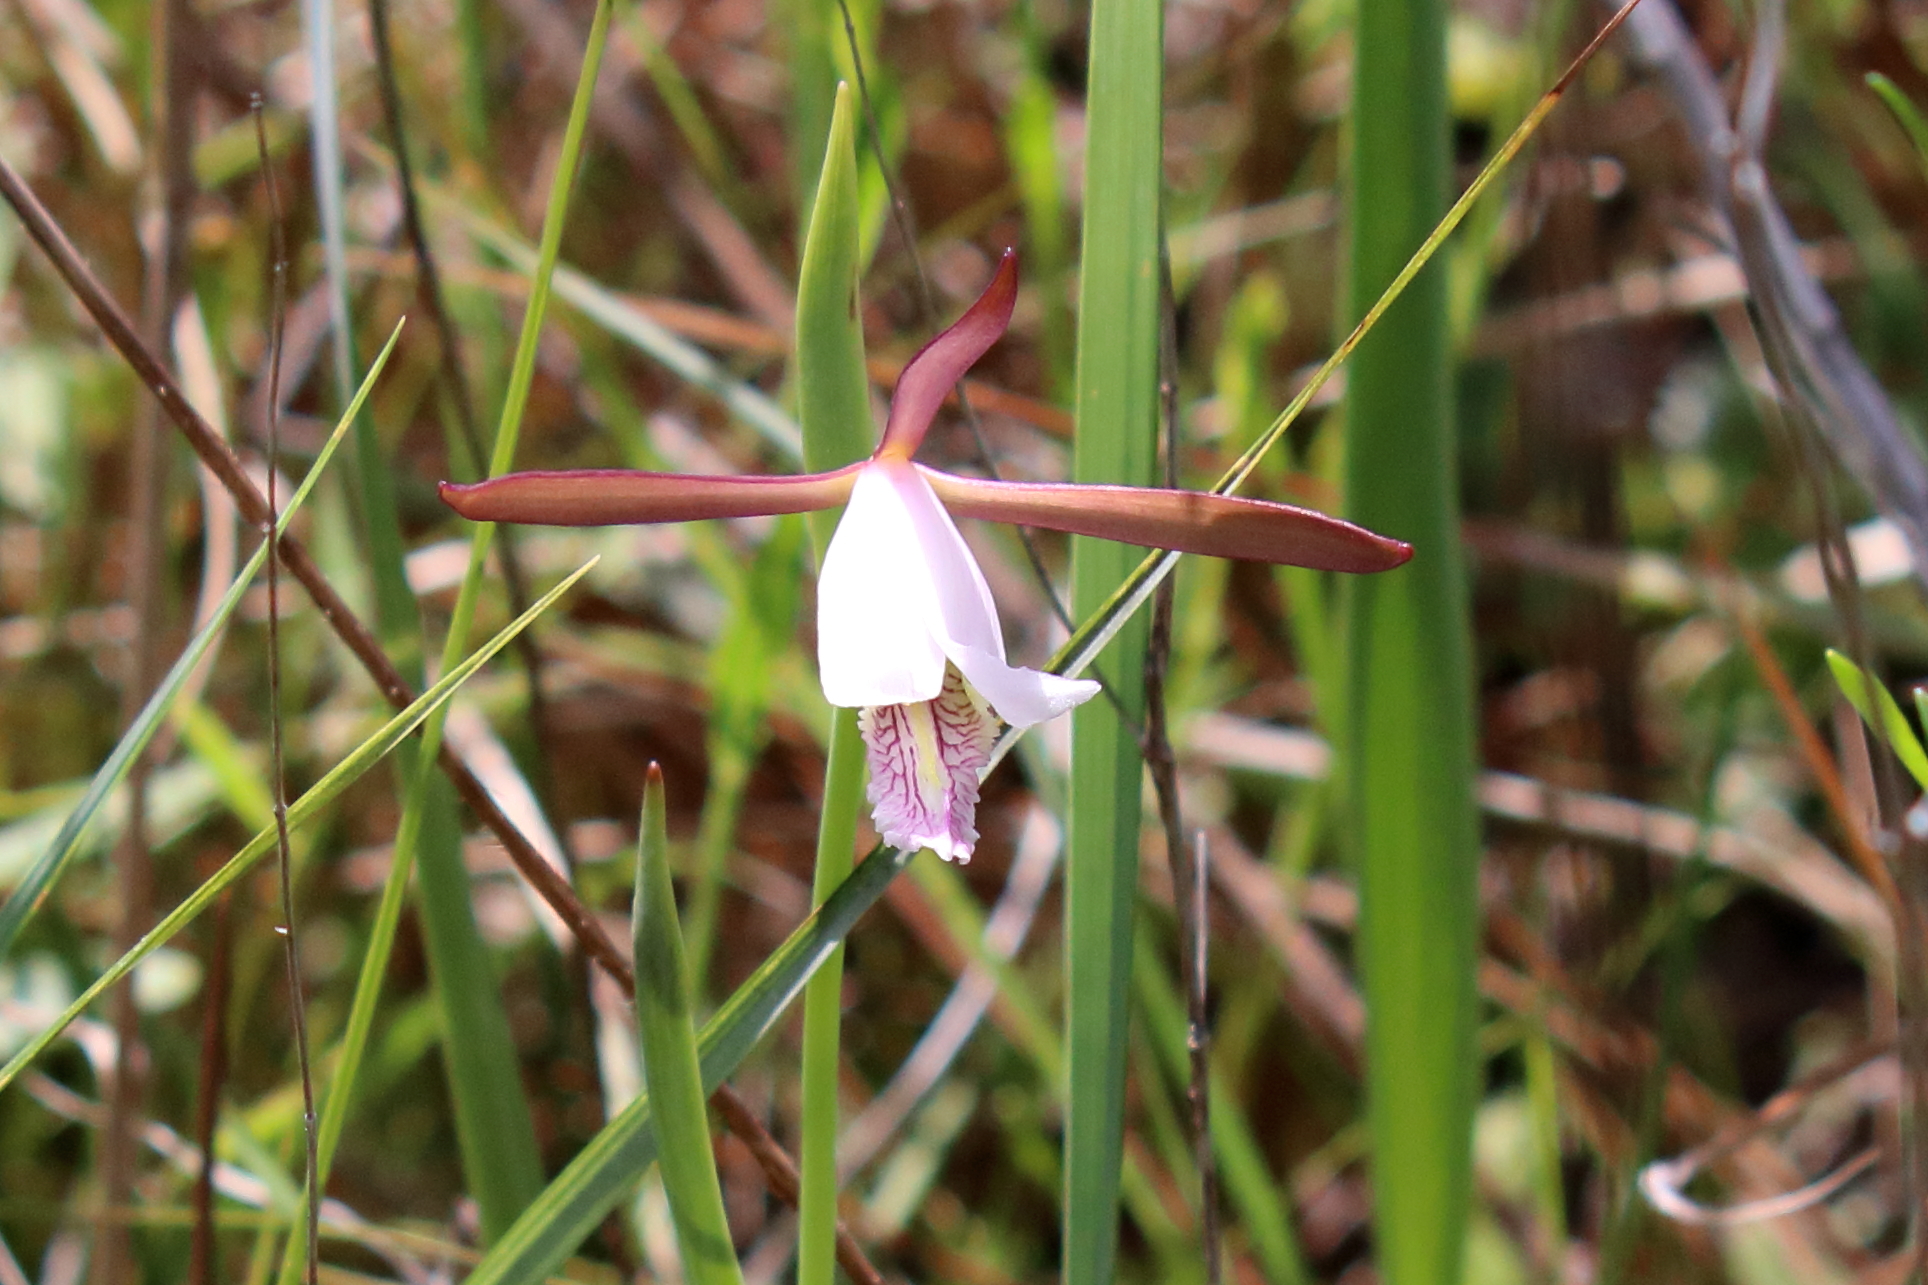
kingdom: Plantae
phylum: Tracheophyta
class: Liliopsida
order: Asparagales
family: Orchidaceae
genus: Cleistesiopsis
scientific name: Cleistesiopsis oricamporum
